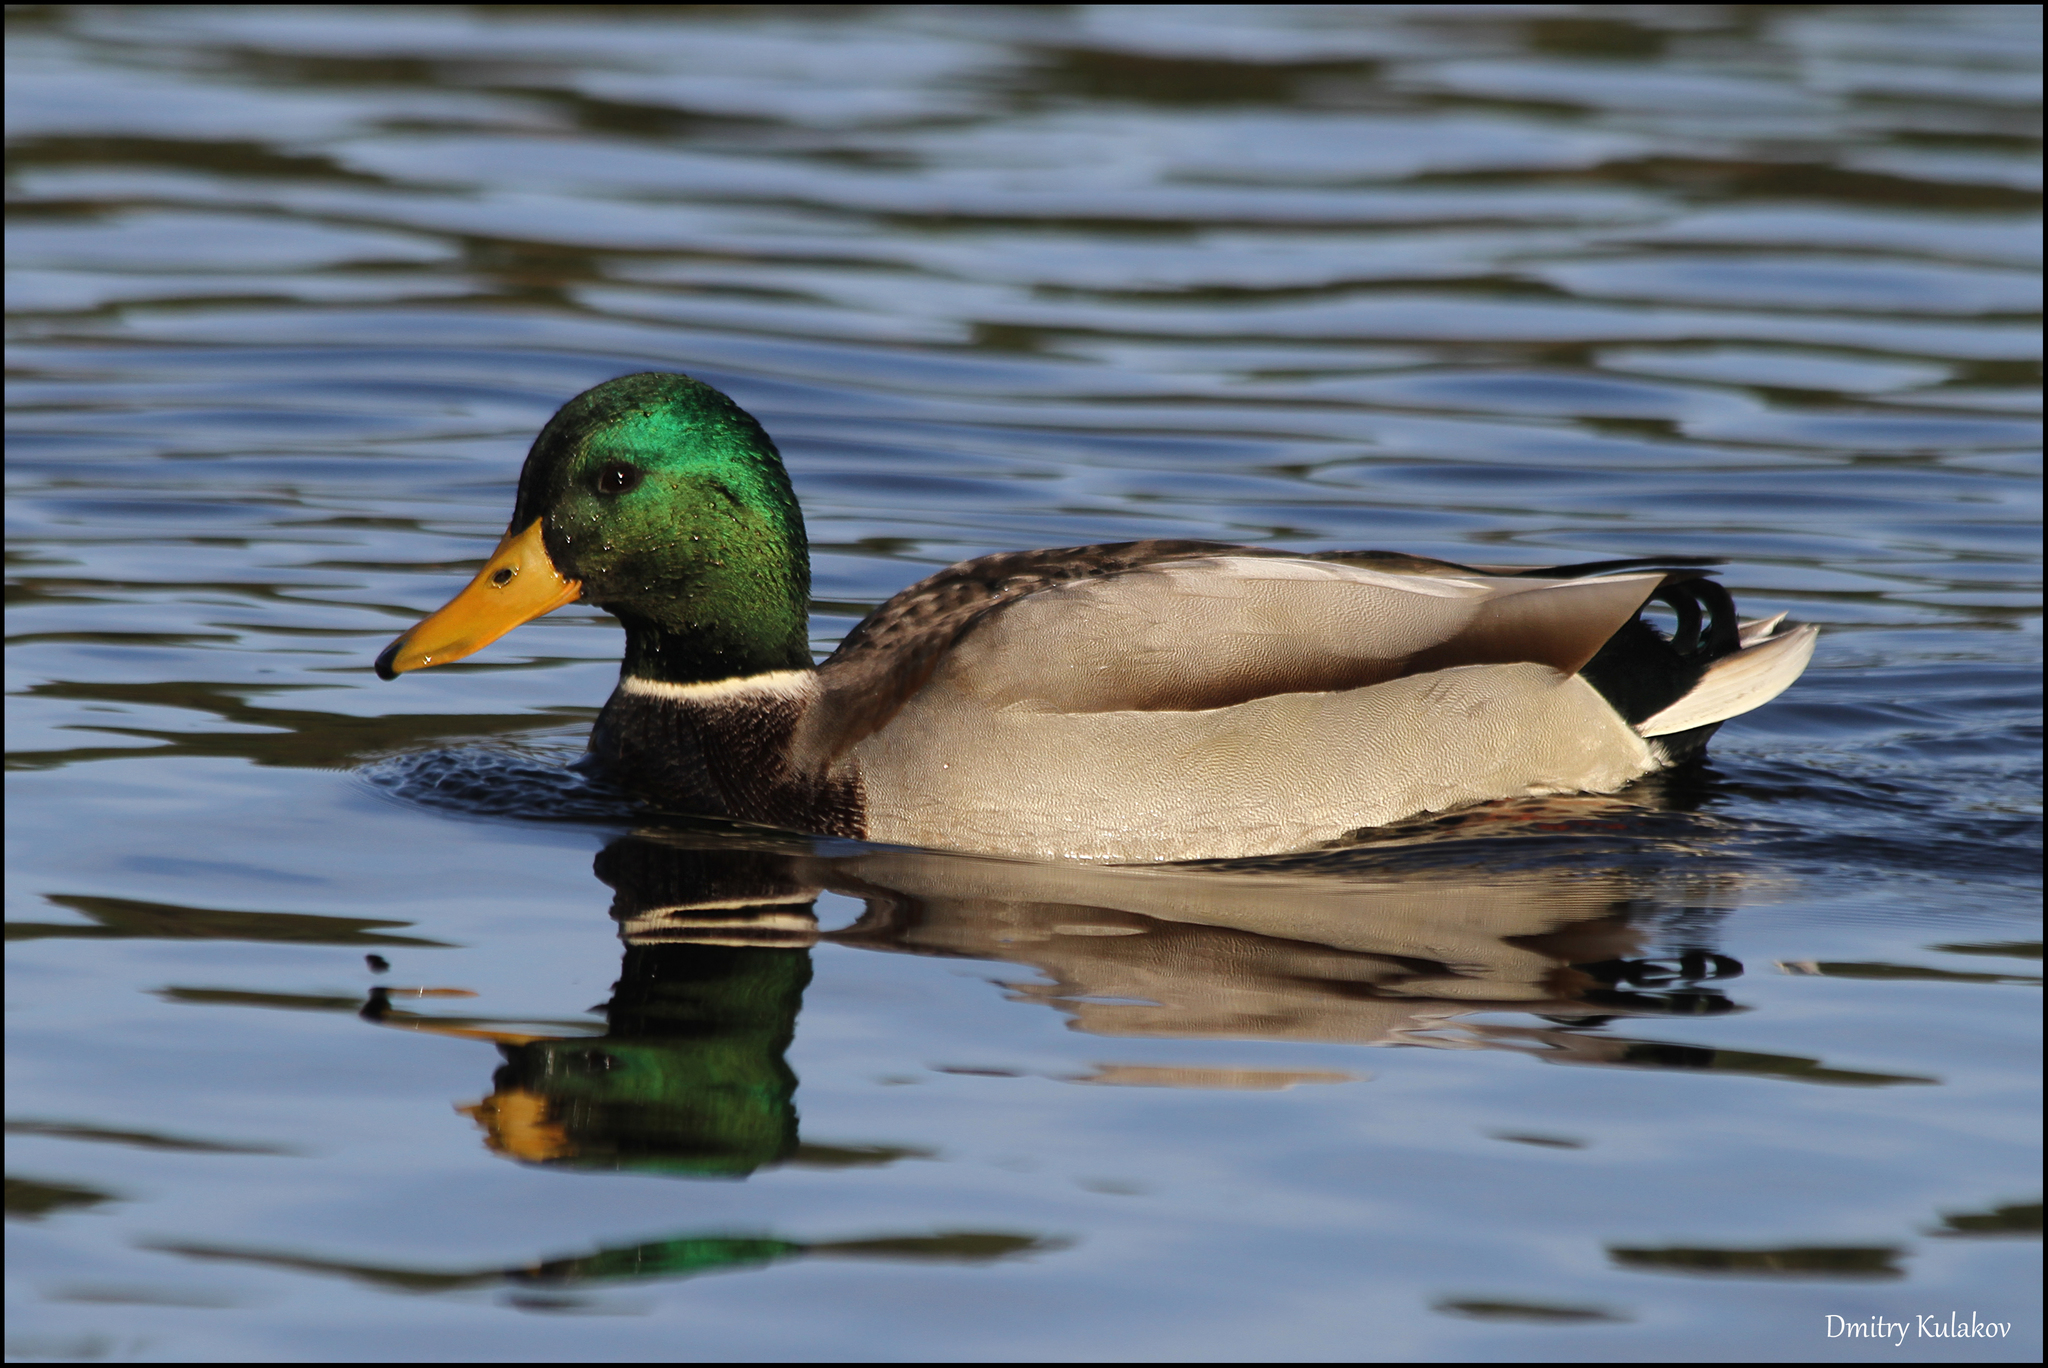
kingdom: Animalia
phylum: Chordata
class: Aves
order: Anseriformes
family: Anatidae
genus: Anas
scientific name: Anas platyrhynchos
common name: Mallard
